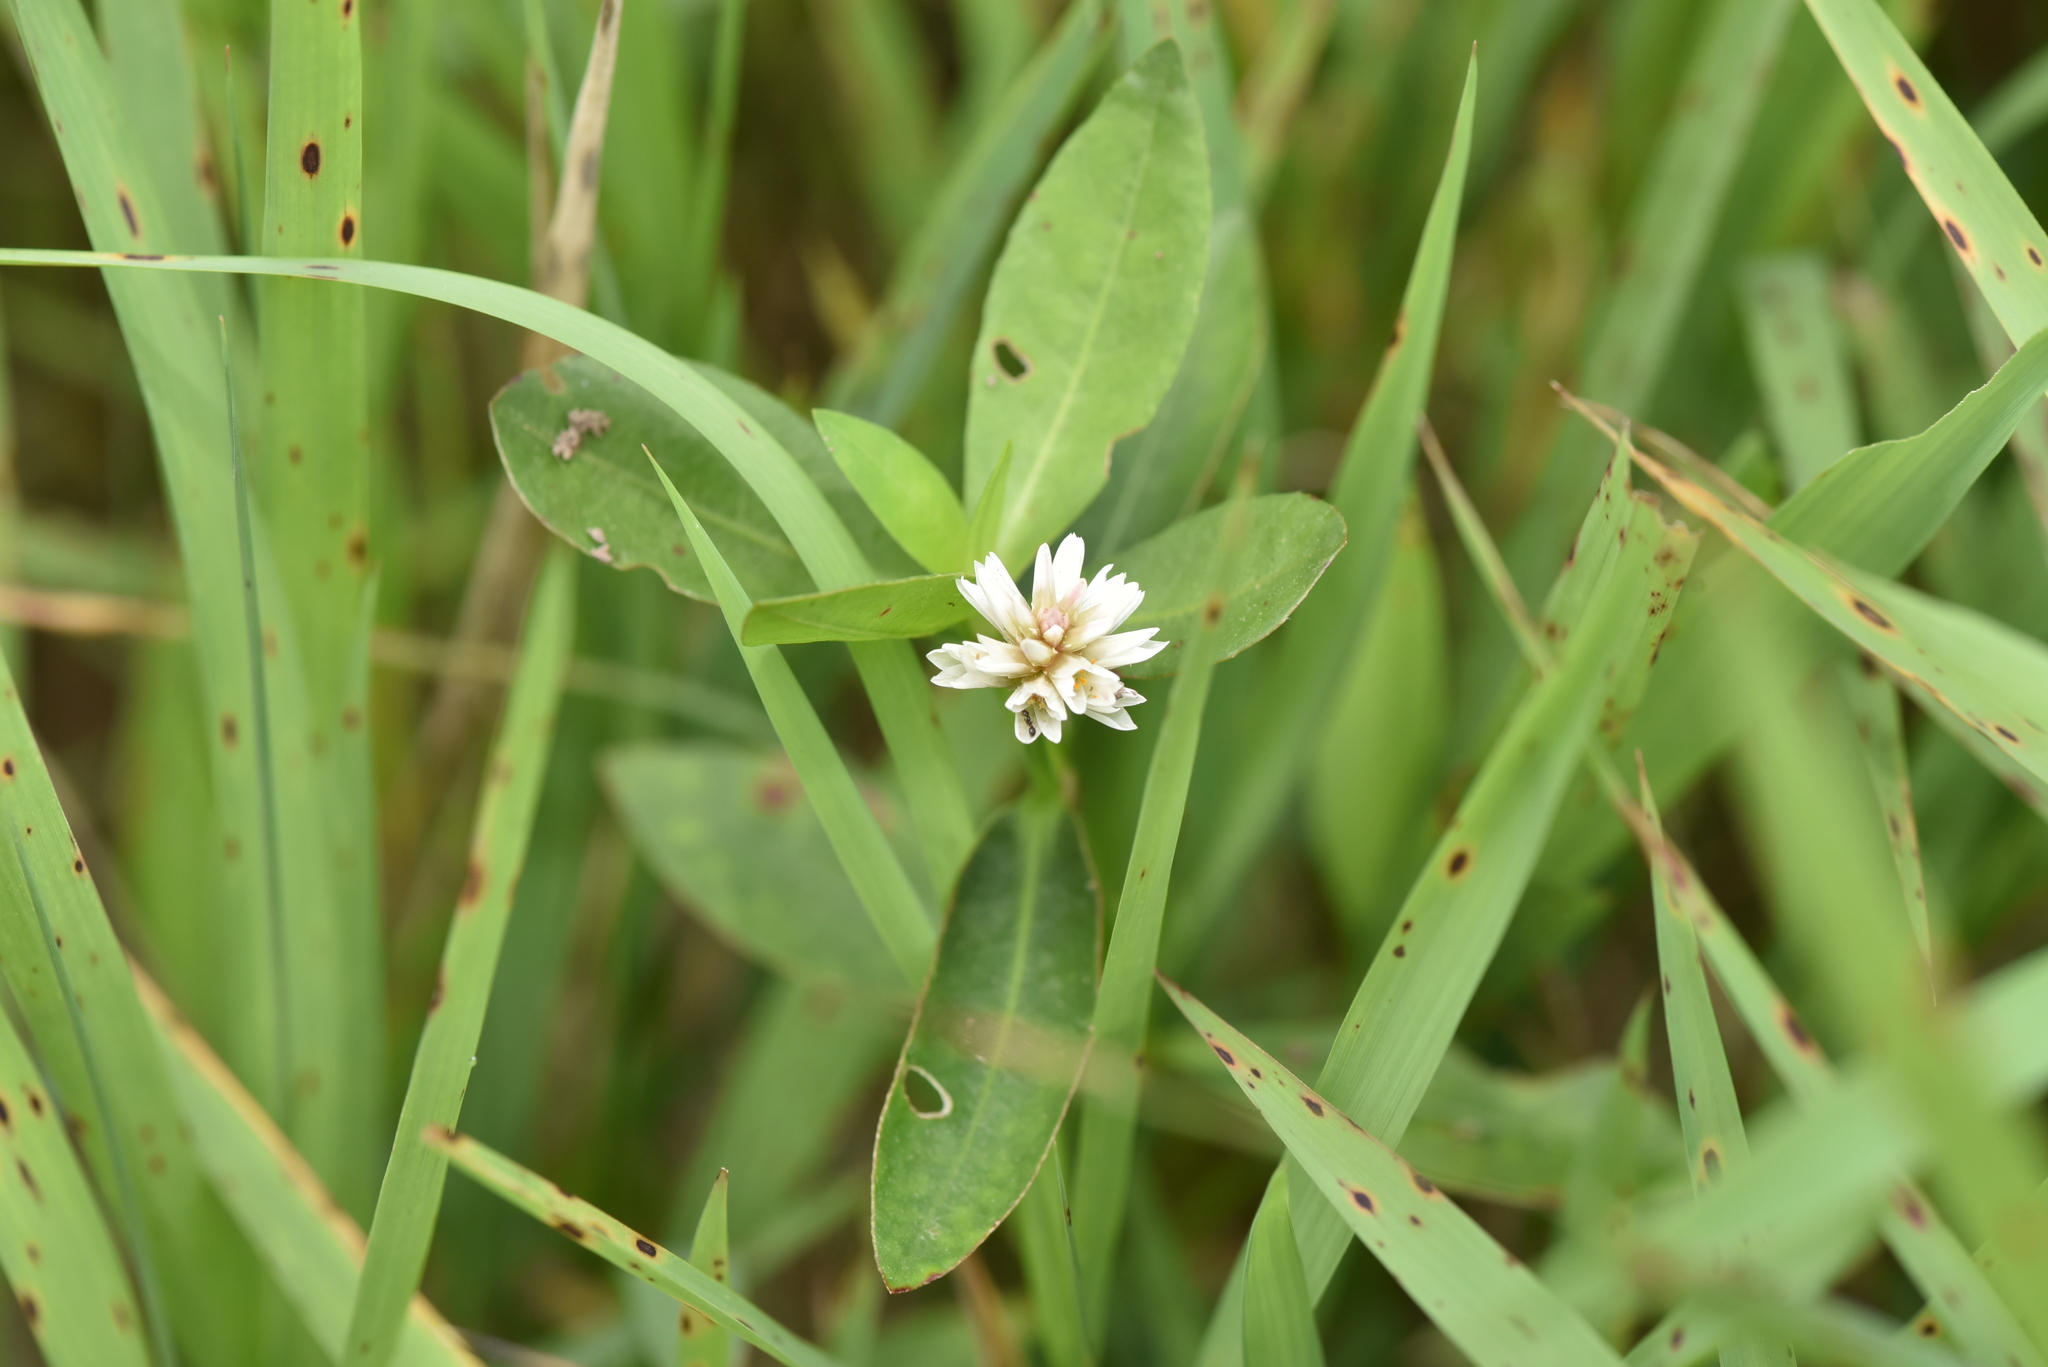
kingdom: Plantae
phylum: Tracheophyta
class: Magnoliopsida
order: Caryophyllales
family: Amaranthaceae
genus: Alternanthera
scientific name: Alternanthera philoxeroides
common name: Alligatorweed
